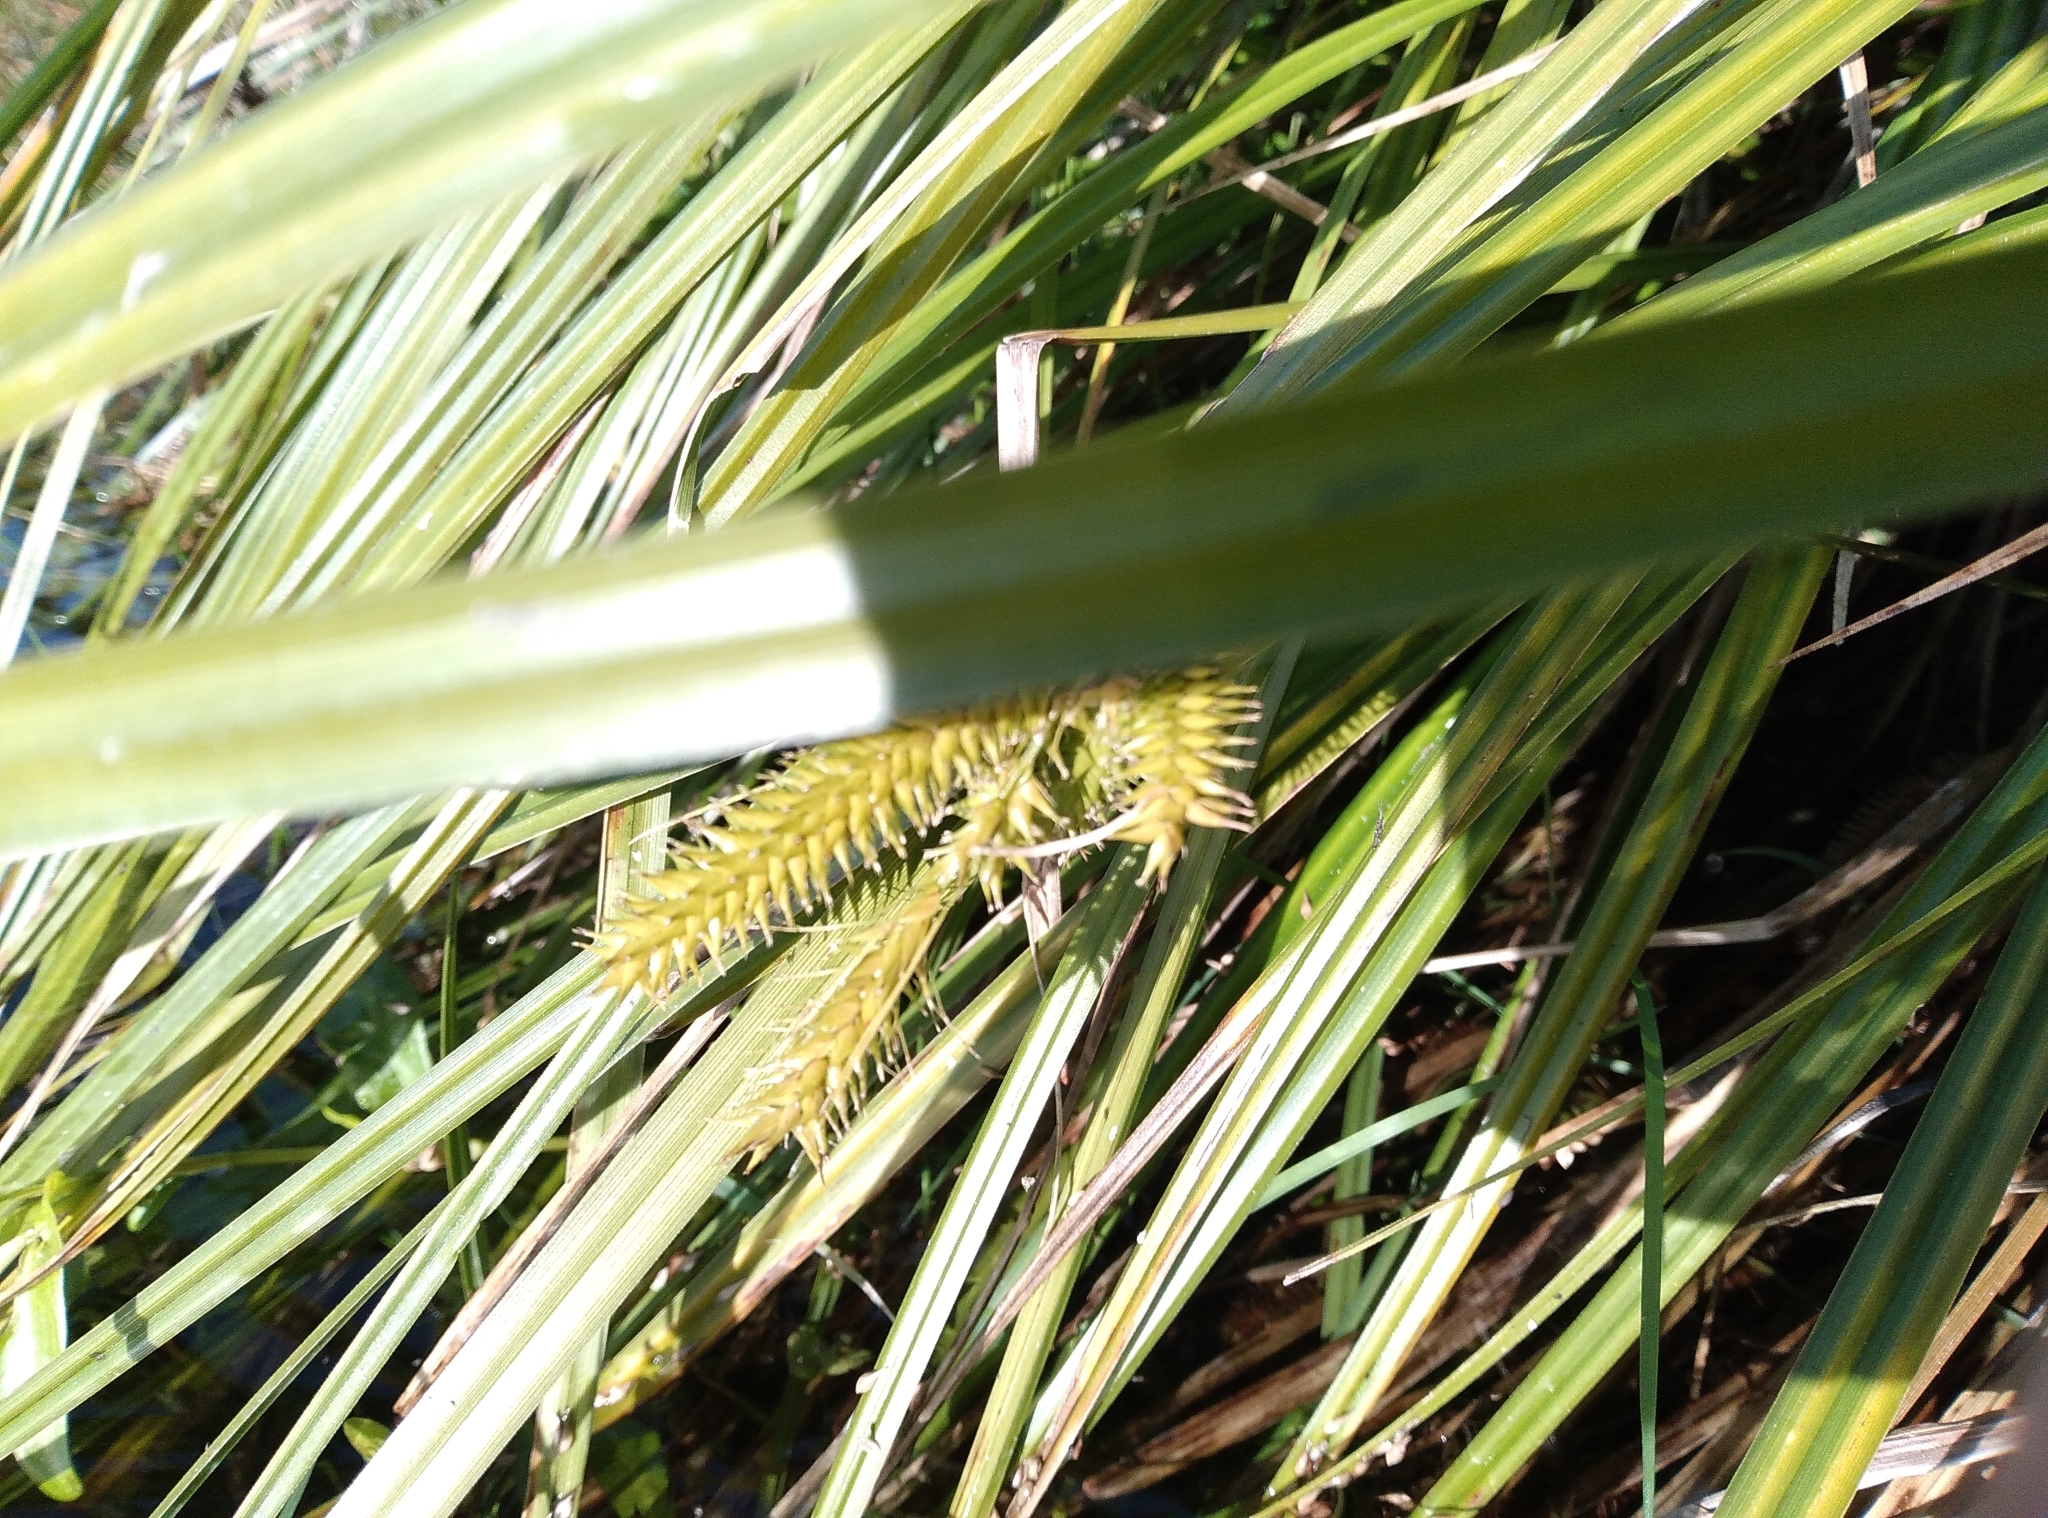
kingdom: Plantae
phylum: Tracheophyta
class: Liliopsida
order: Poales
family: Cyperaceae
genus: Carex
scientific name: Carex maorica
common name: Maori sedge
